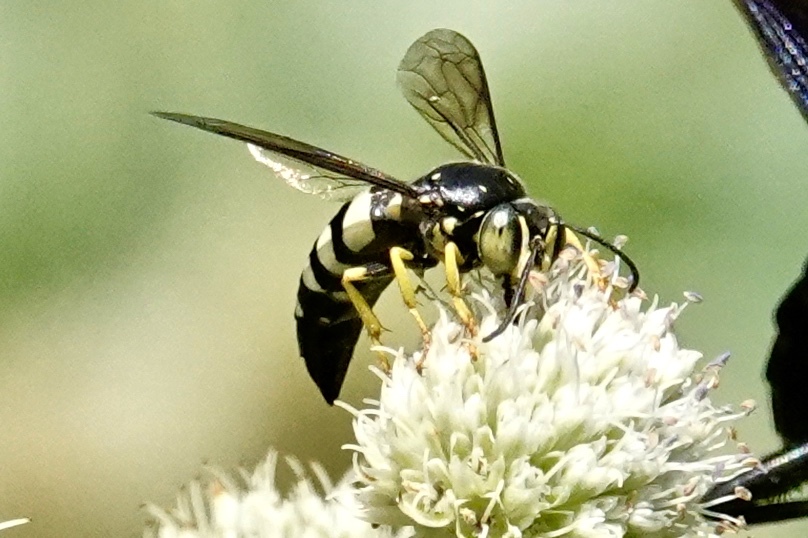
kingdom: Animalia
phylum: Arthropoda
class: Insecta
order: Hymenoptera
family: Crabronidae
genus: Bicyrtes
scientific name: Bicyrtes quadrifasciatus
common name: Four-banded stink bug hunter wasp
